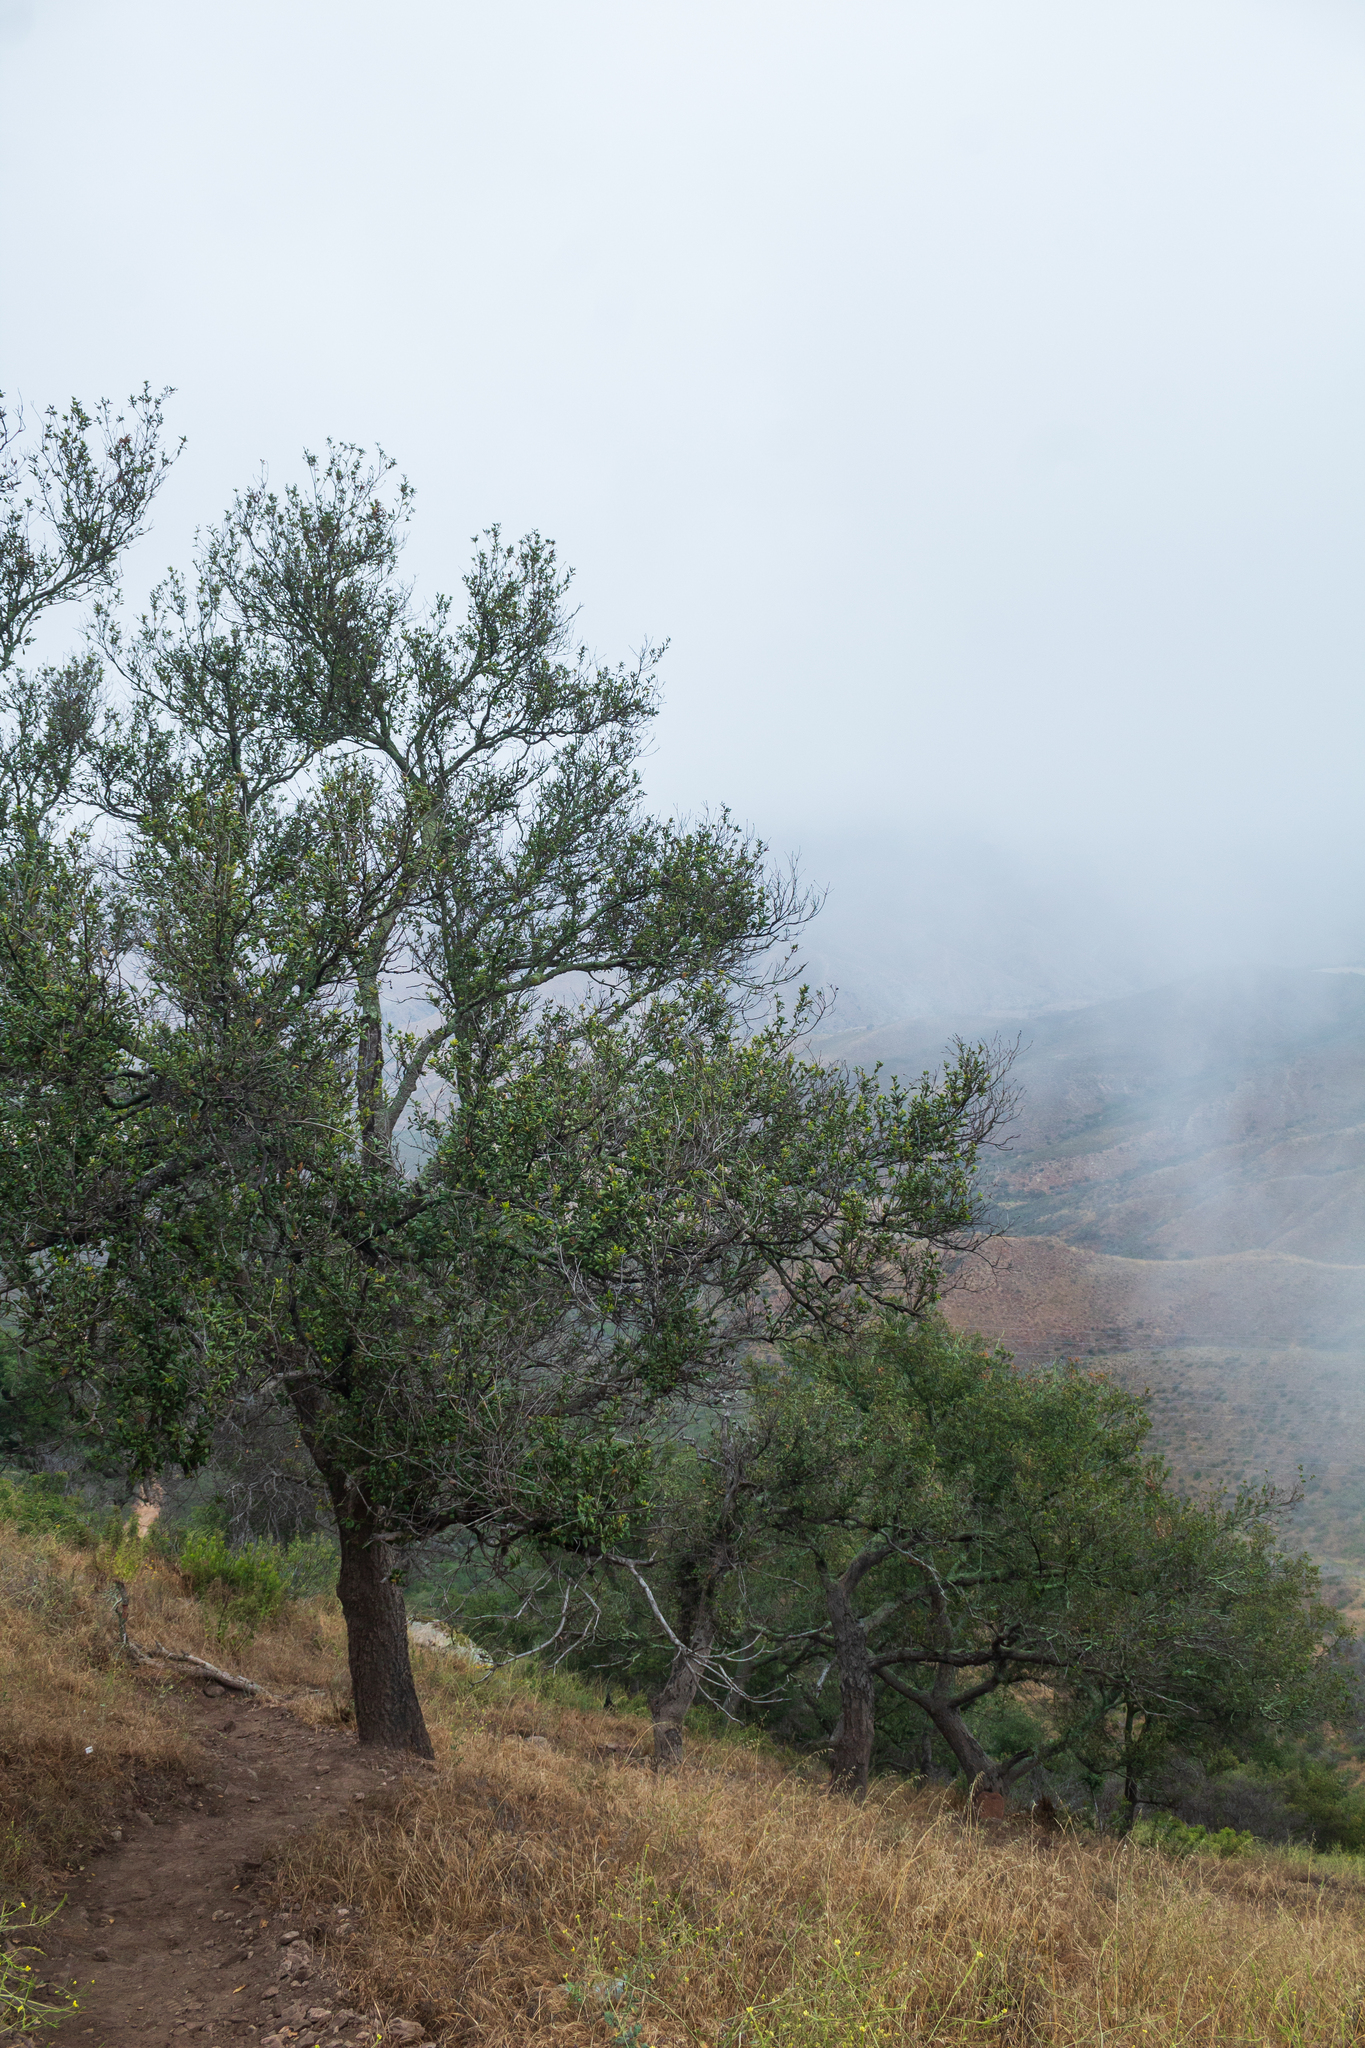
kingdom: Plantae
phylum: Tracheophyta
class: Magnoliopsida
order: Fagales
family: Fagaceae
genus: Quercus
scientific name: Quercus agrifolia
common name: California live oak
